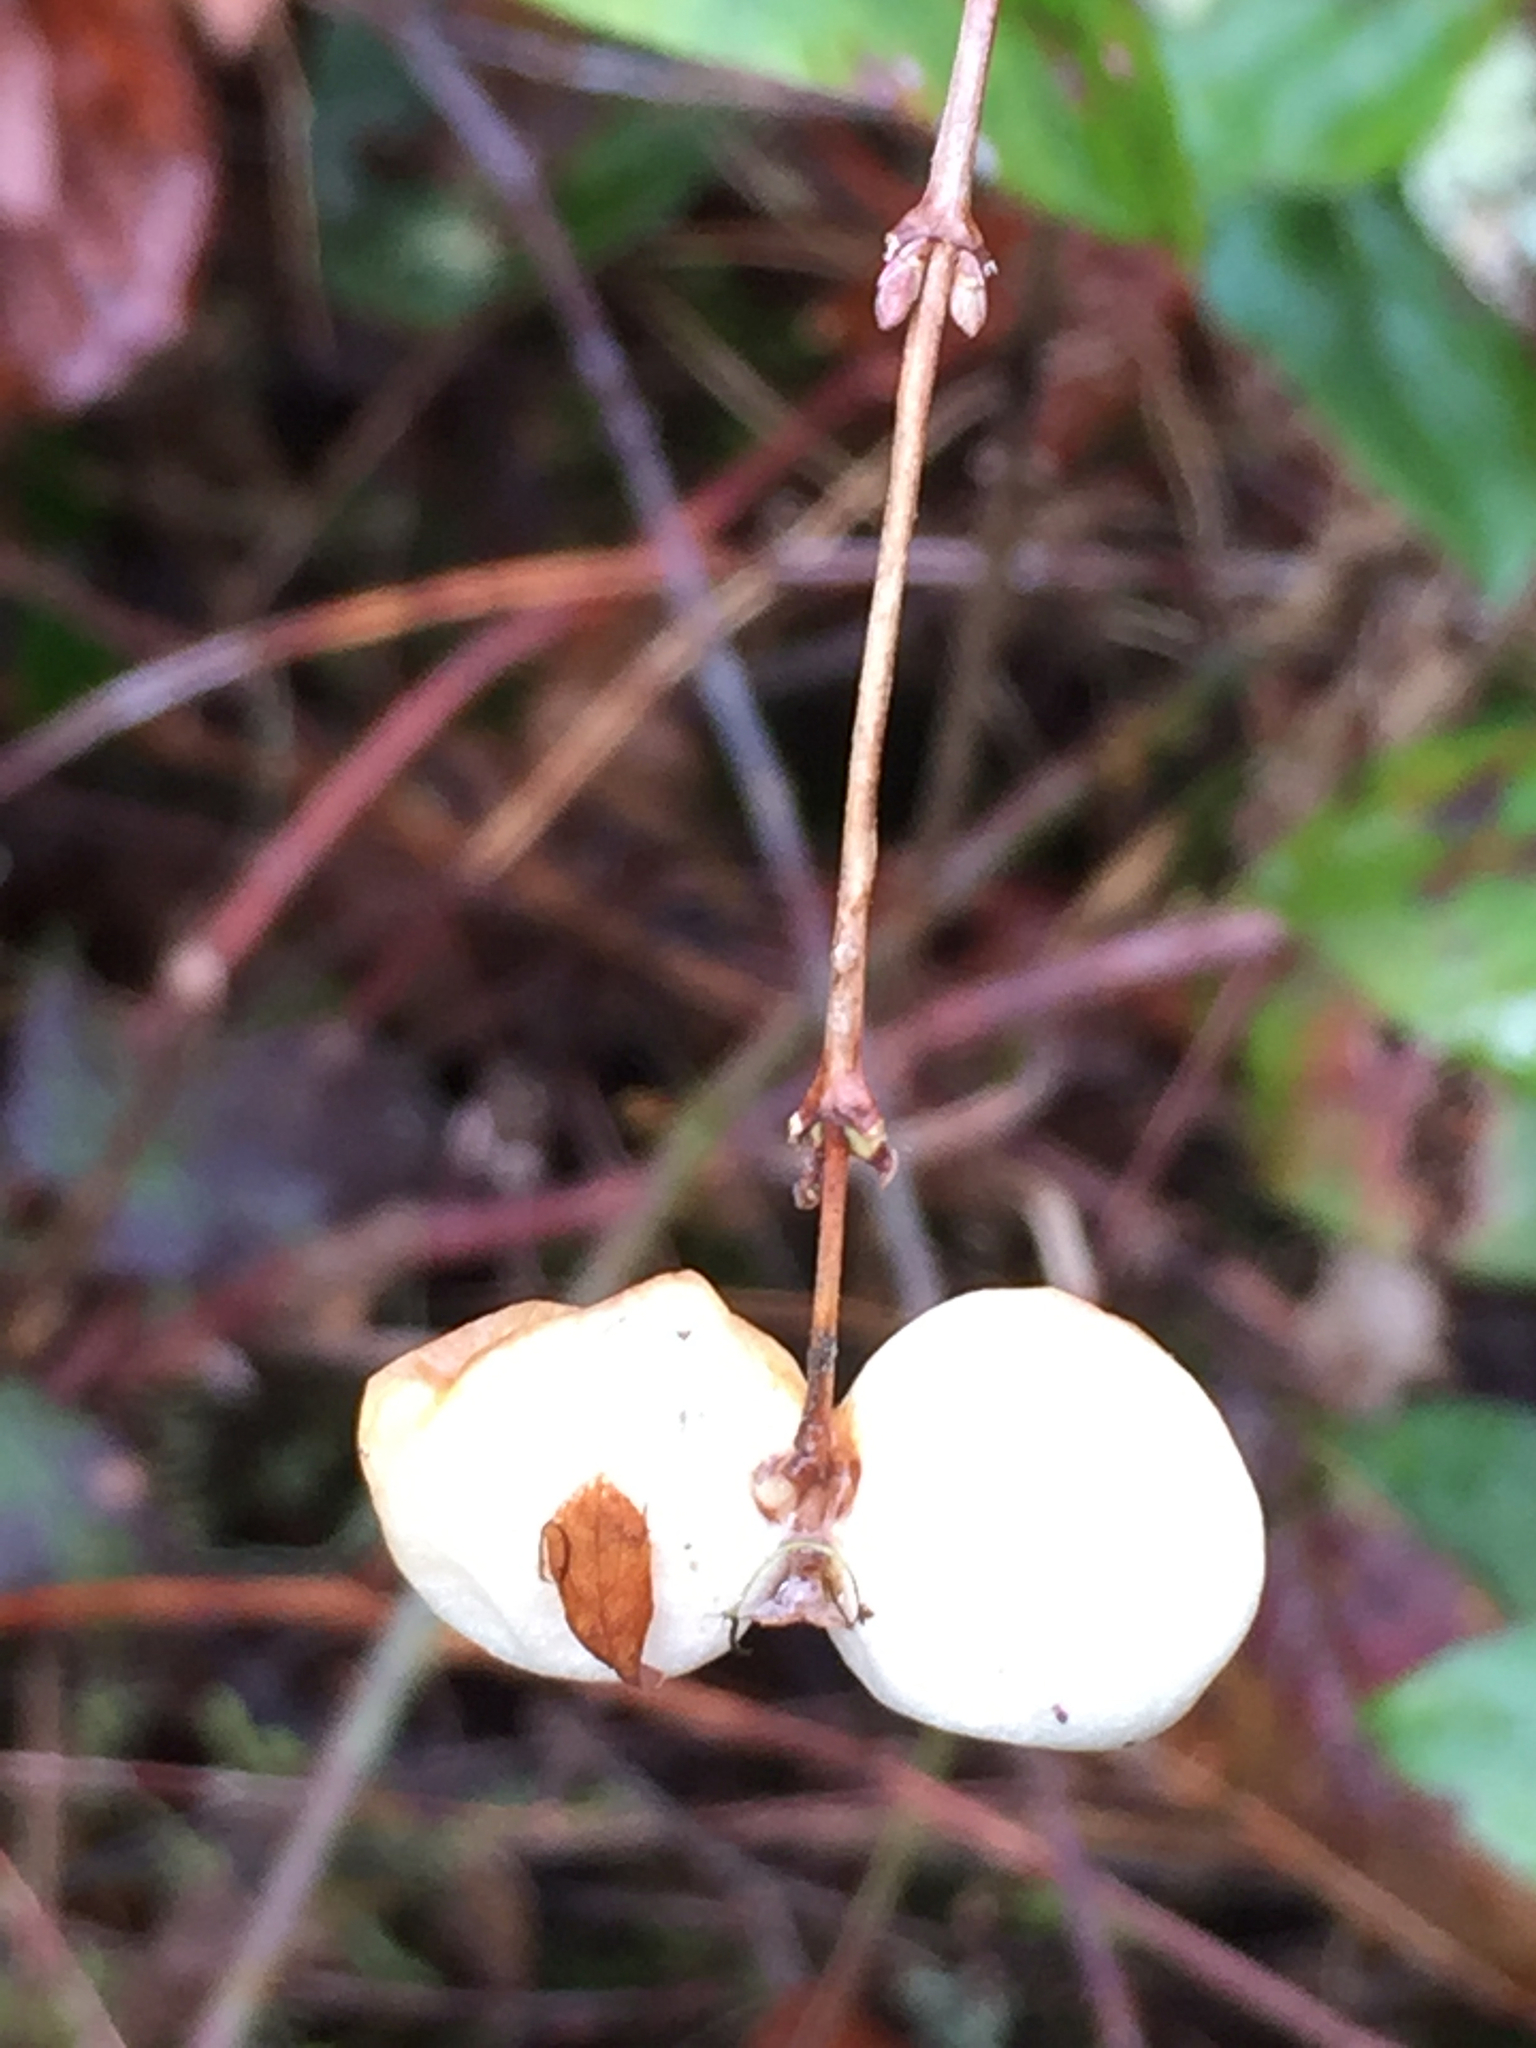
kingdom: Plantae
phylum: Tracheophyta
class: Magnoliopsida
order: Dipsacales
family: Caprifoliaceae
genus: Symphoricarpos
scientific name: Symphoricarpos albus
